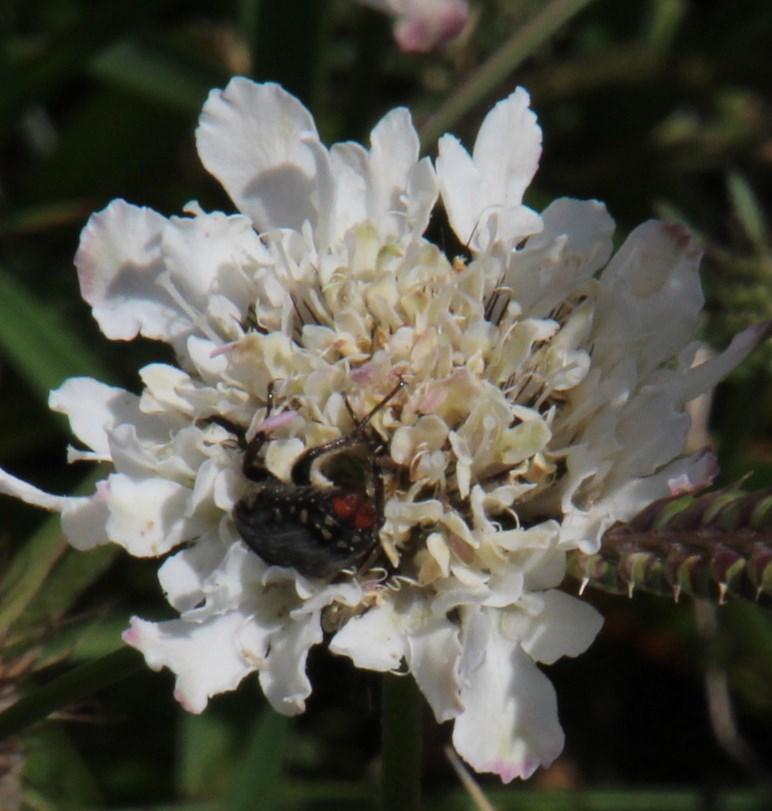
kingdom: Animalia
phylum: Arthropoda
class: Insecta
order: Coleoptera
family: Scarabaeidae
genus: Oxythyrea
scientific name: Oxythyrea
